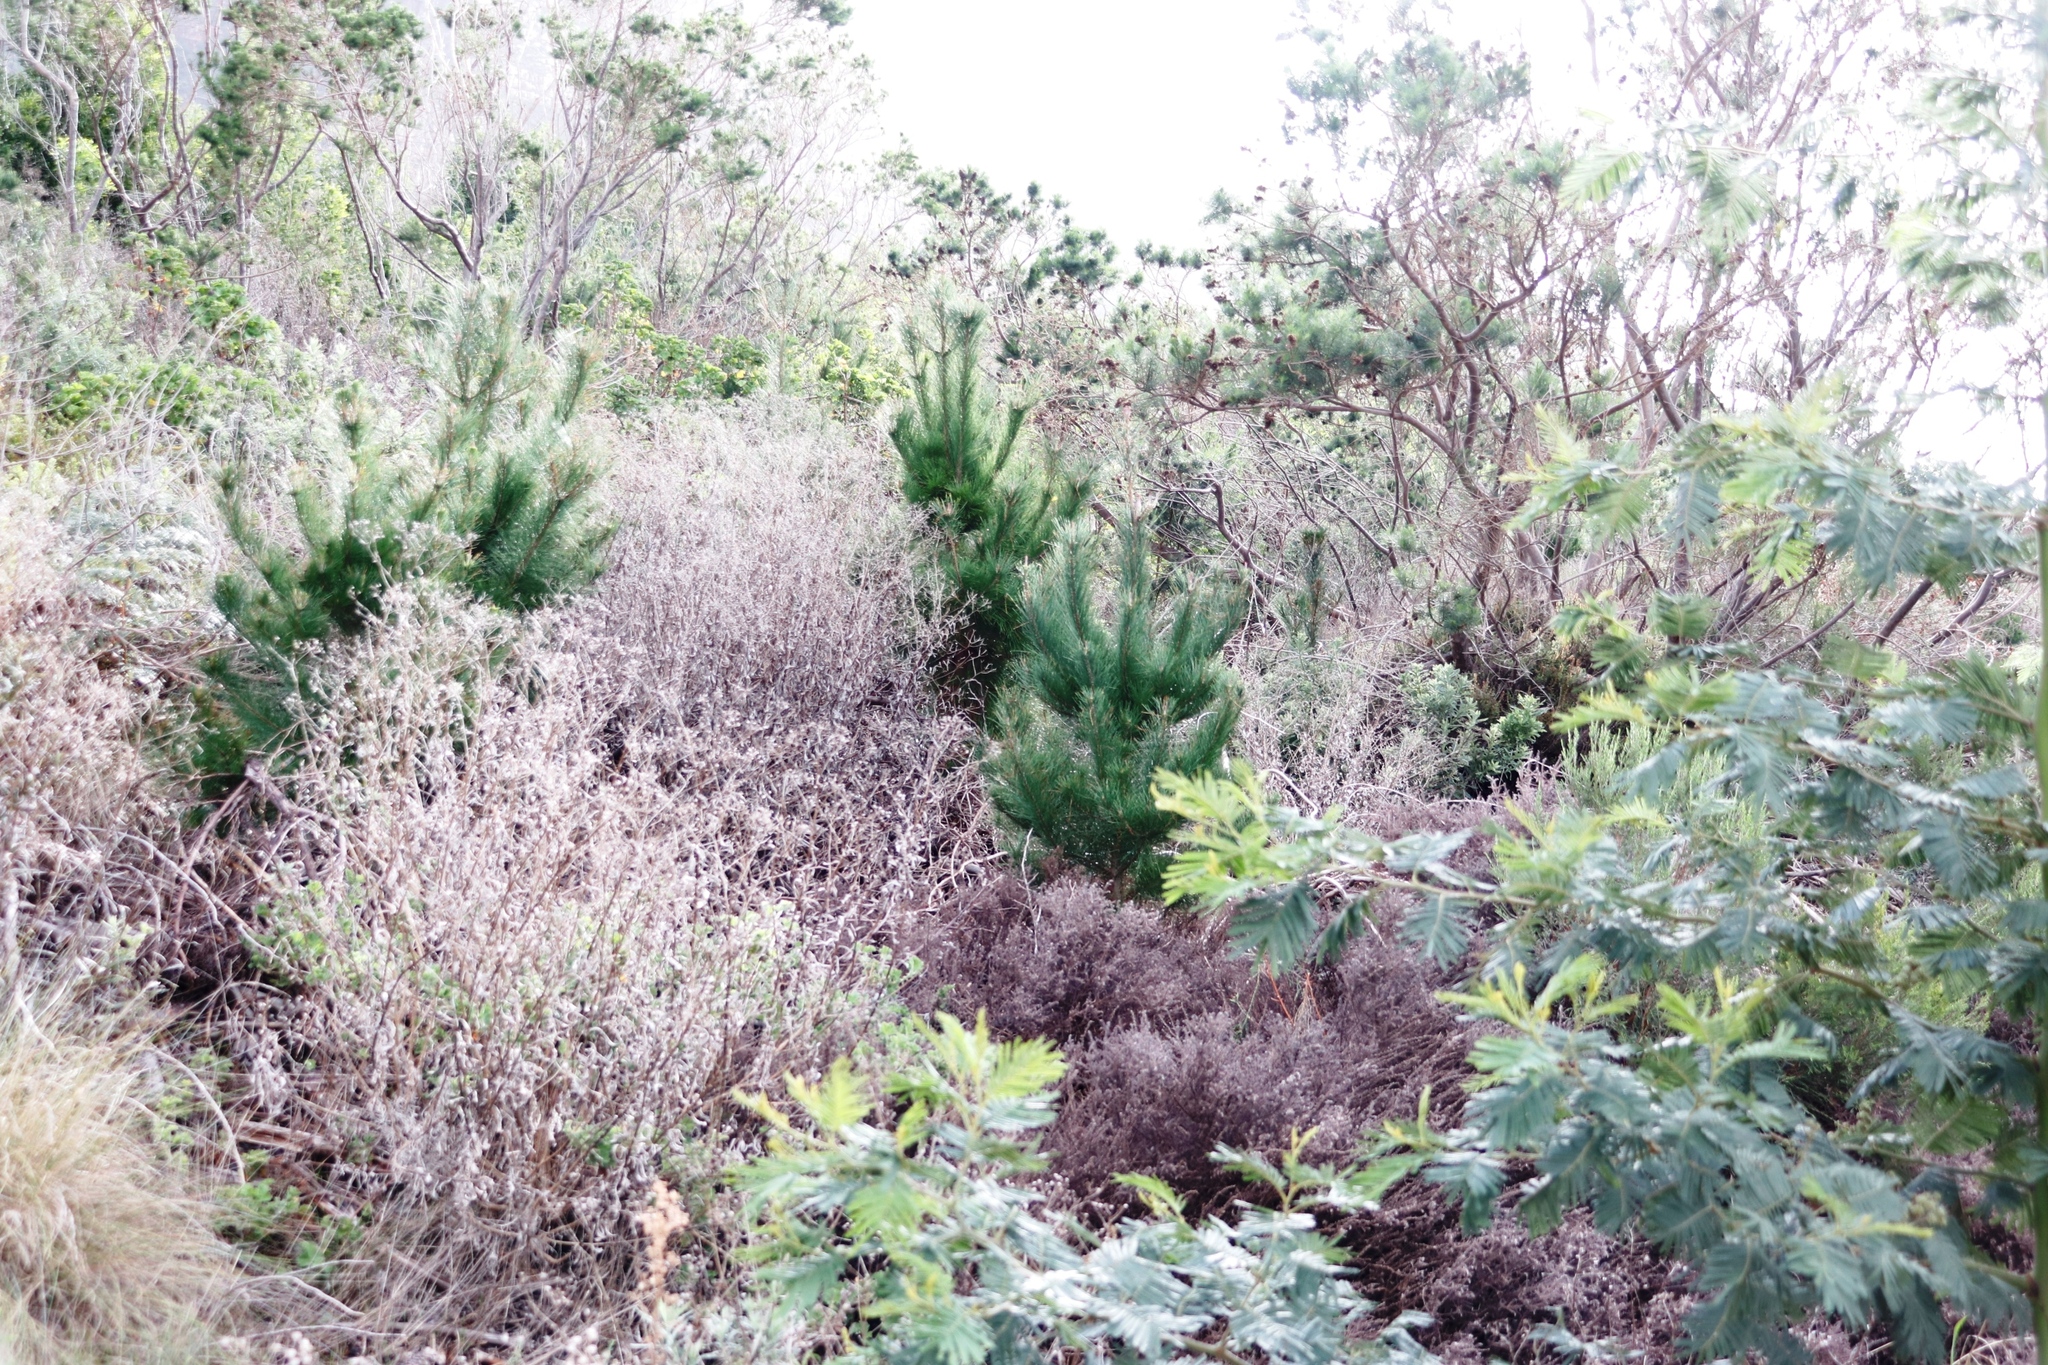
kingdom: Plantae
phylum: Tracheophyta
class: Pinopsida
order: Pinales
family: Pinaceae
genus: Pinus
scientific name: Pinus radiata
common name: Monterey pine
